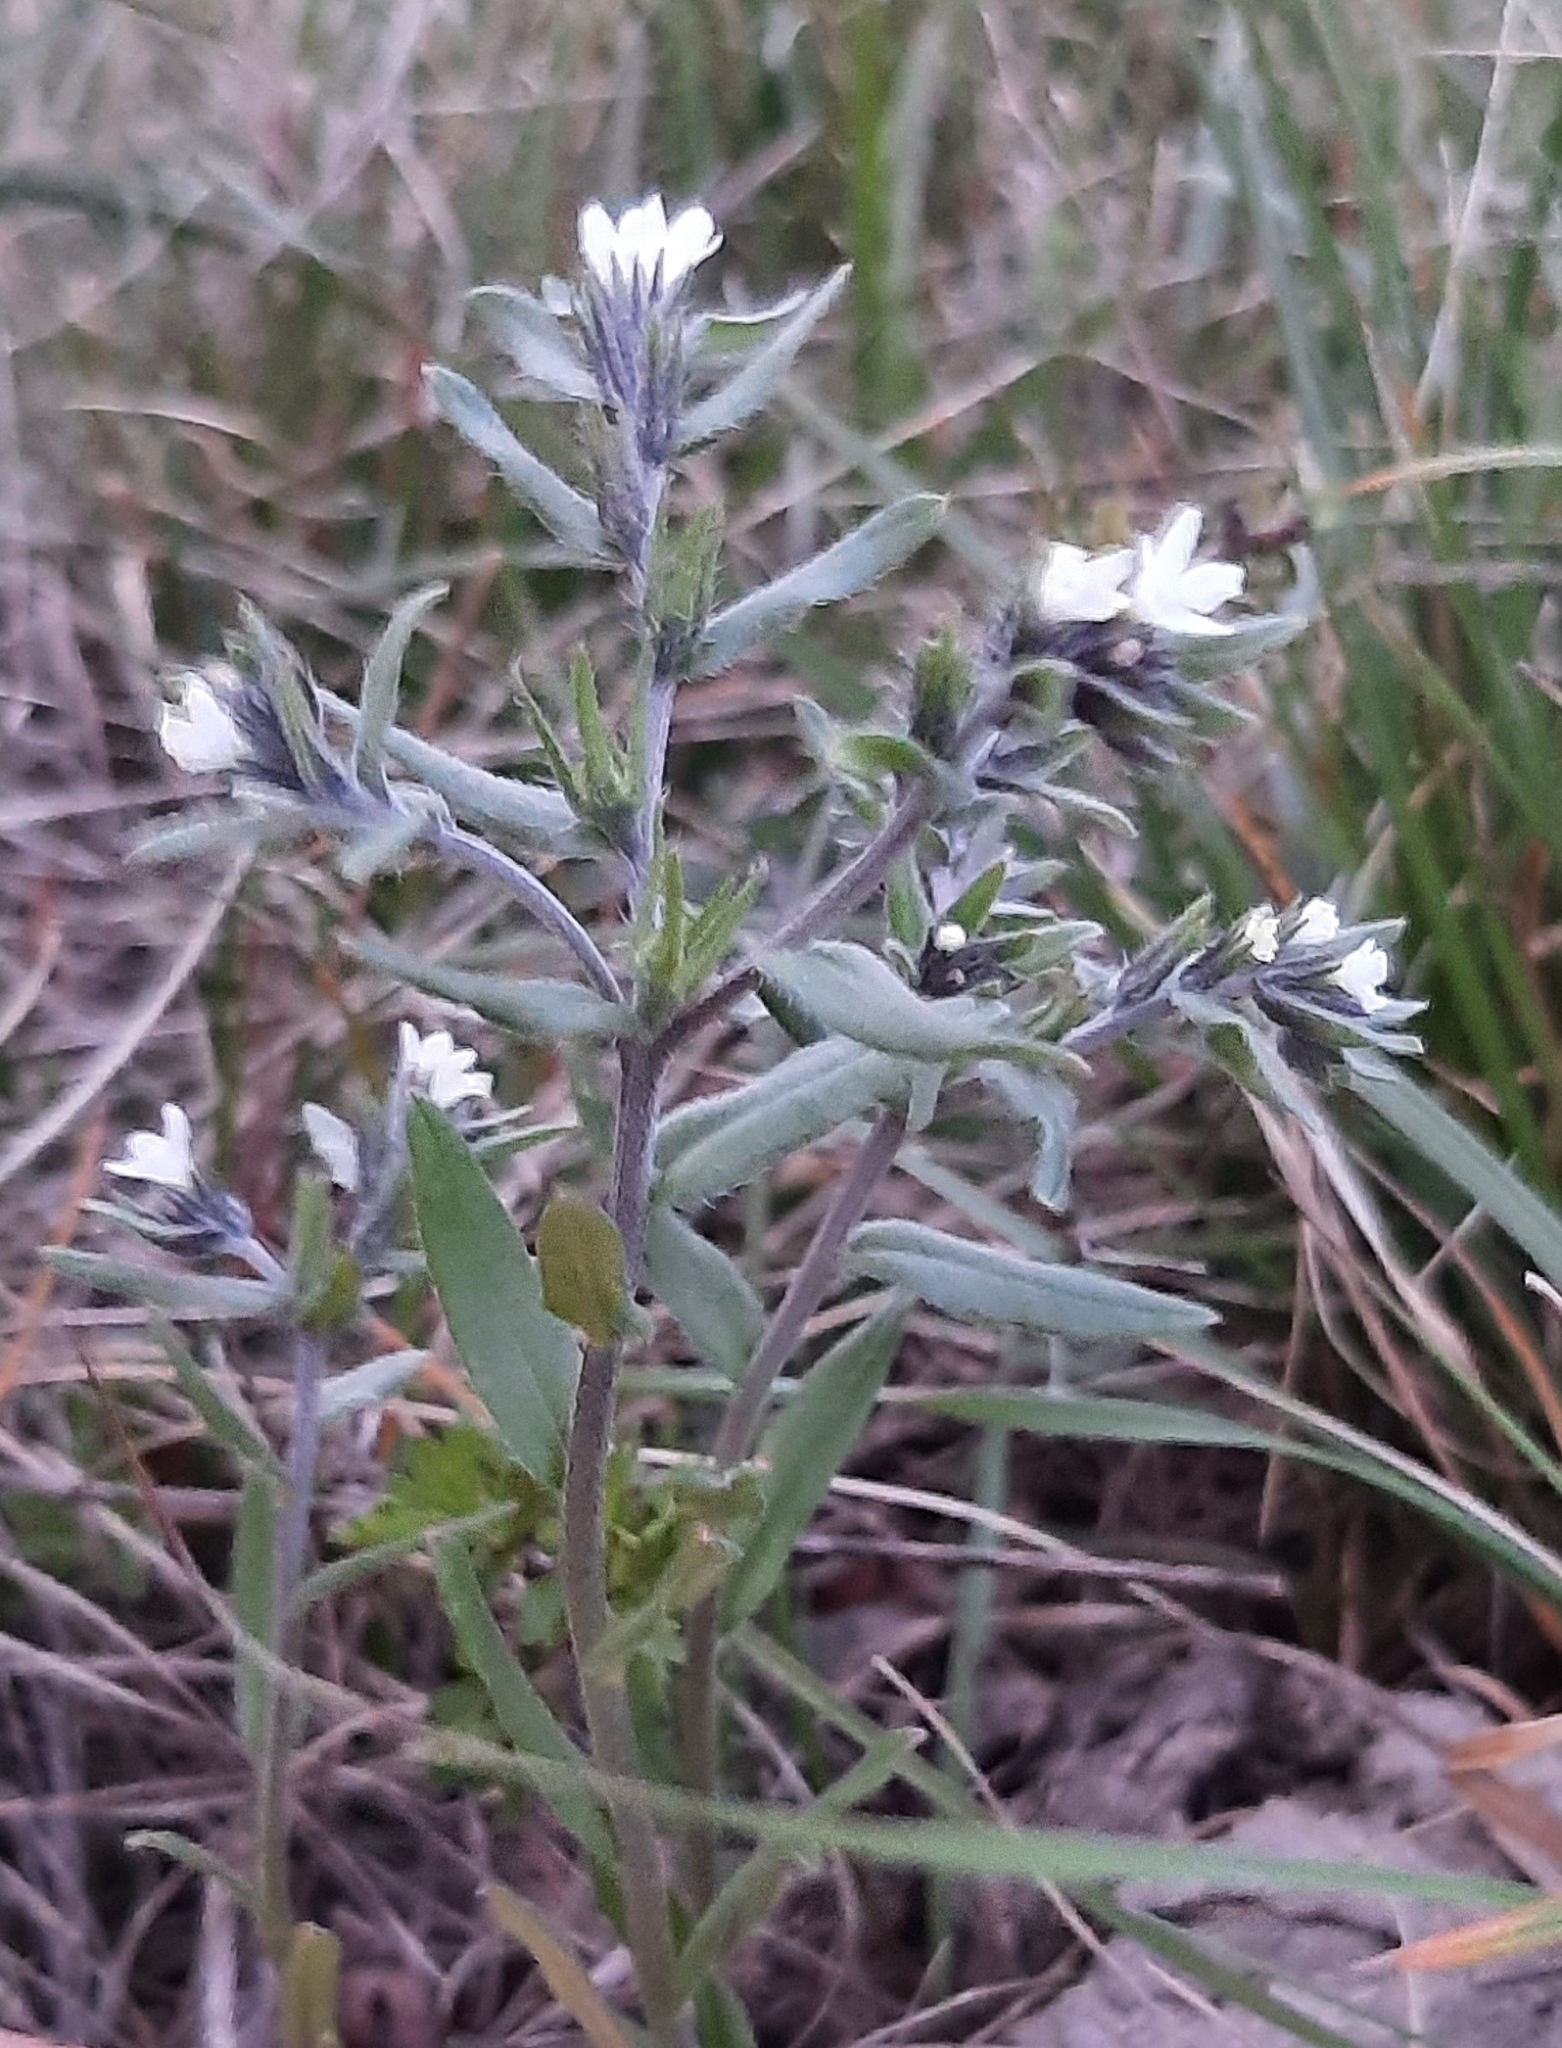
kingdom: Plantae
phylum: Tracheophyta
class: Magnoliopsida
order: Boraginales
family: Boraginaceae
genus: Buglossoides
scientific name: Buglossoides arvensis
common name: Corn gromwell
